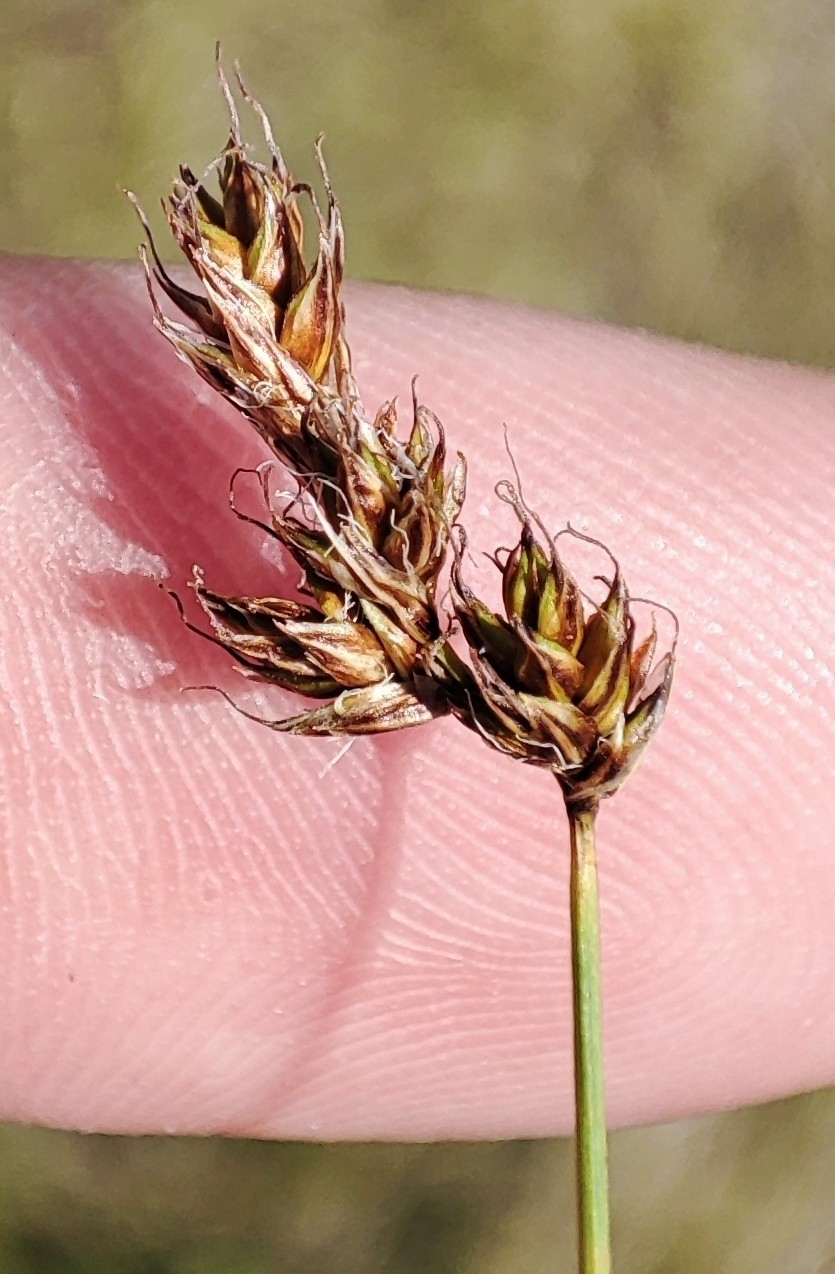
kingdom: Plantae
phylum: Tracheophyta
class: Liliopsida
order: Poales
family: Cyperaceae
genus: Carex
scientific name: Carex praecox
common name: Early sedge
